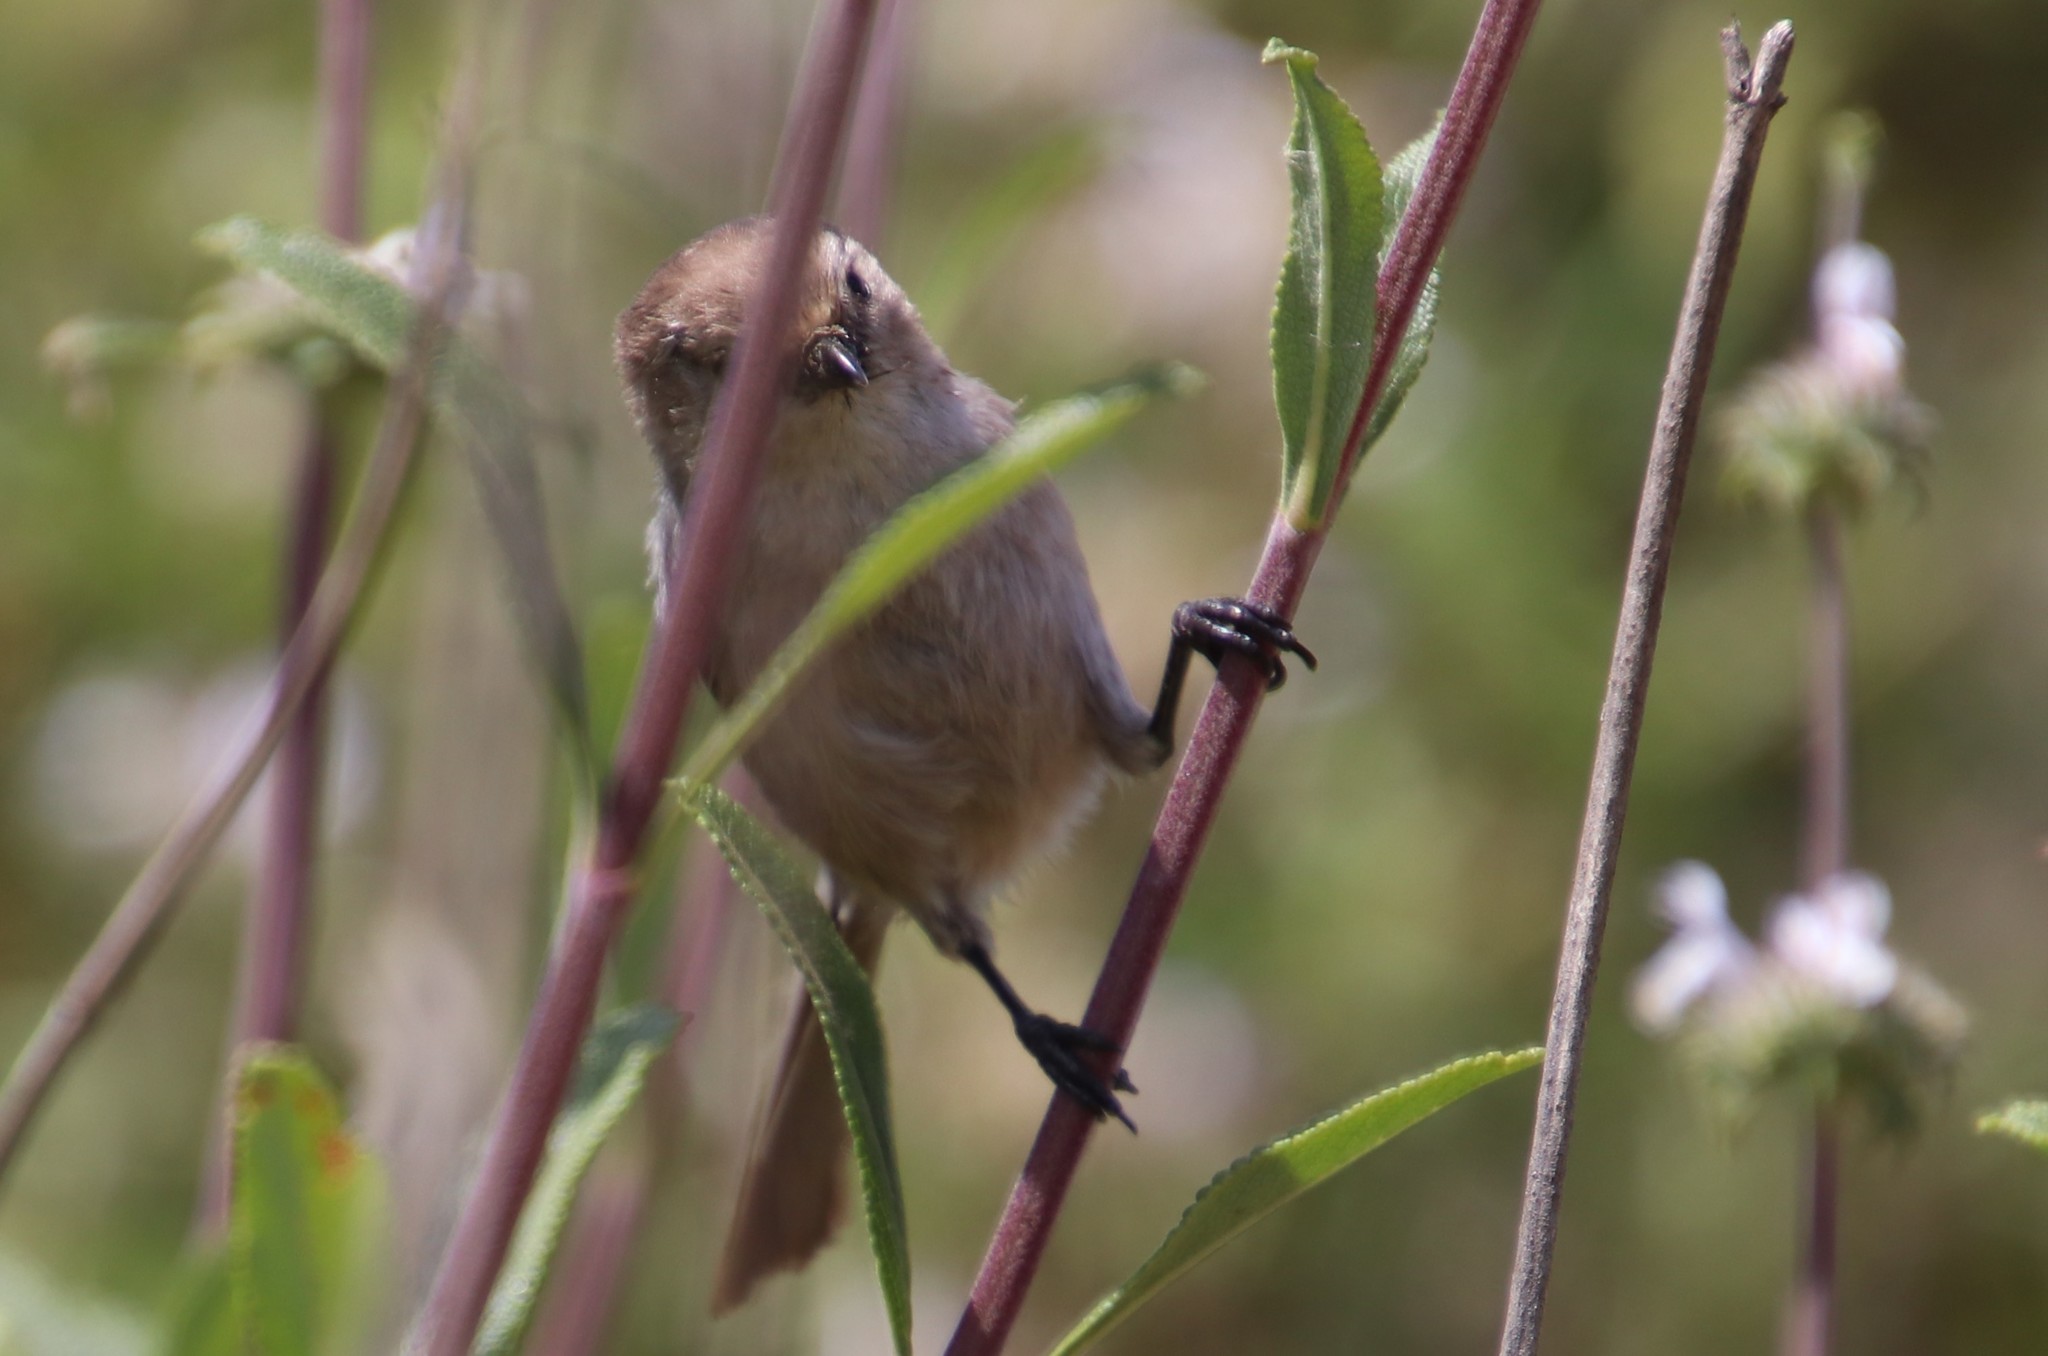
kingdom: Animalia
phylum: Chordata
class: Aves
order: Passeriformes
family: Aegithalidae
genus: Psaltriparus
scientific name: Psaltriparus minimus
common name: American bushtit
